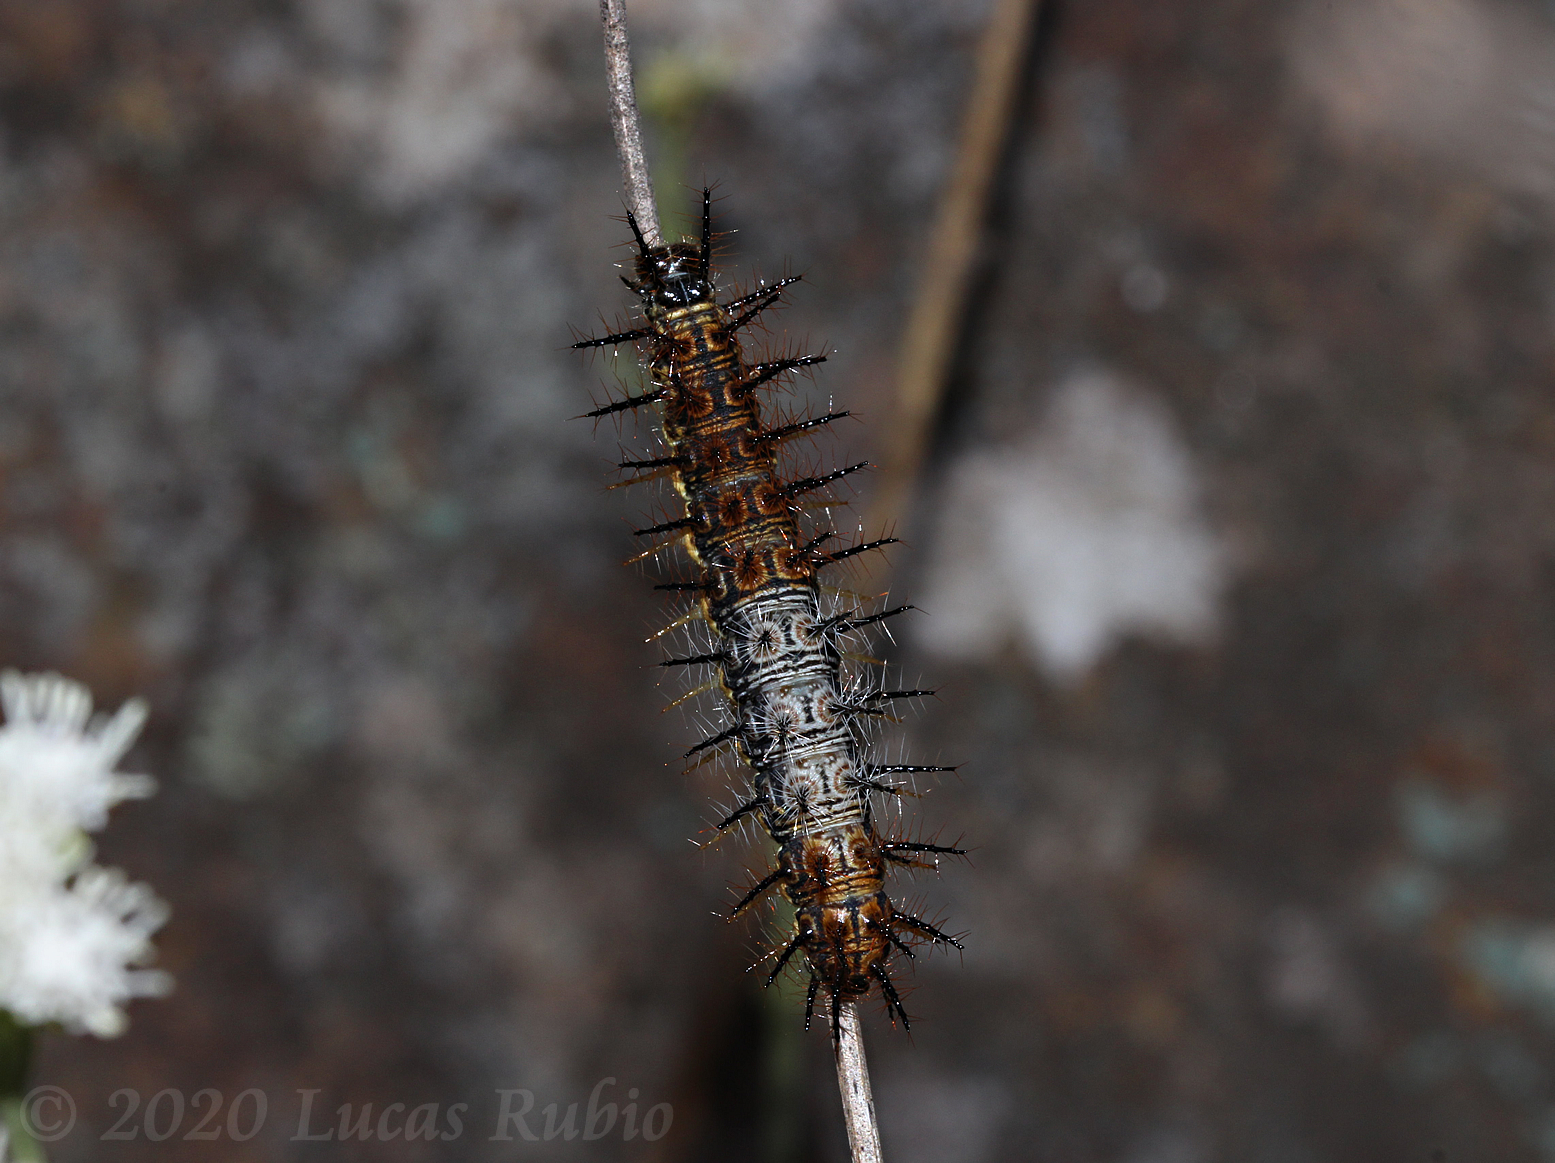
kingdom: Animalia
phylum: Arthropoda
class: Insecta
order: Lepidoptera
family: Nymphalidae
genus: Actinote
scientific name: Actinote pellenea
